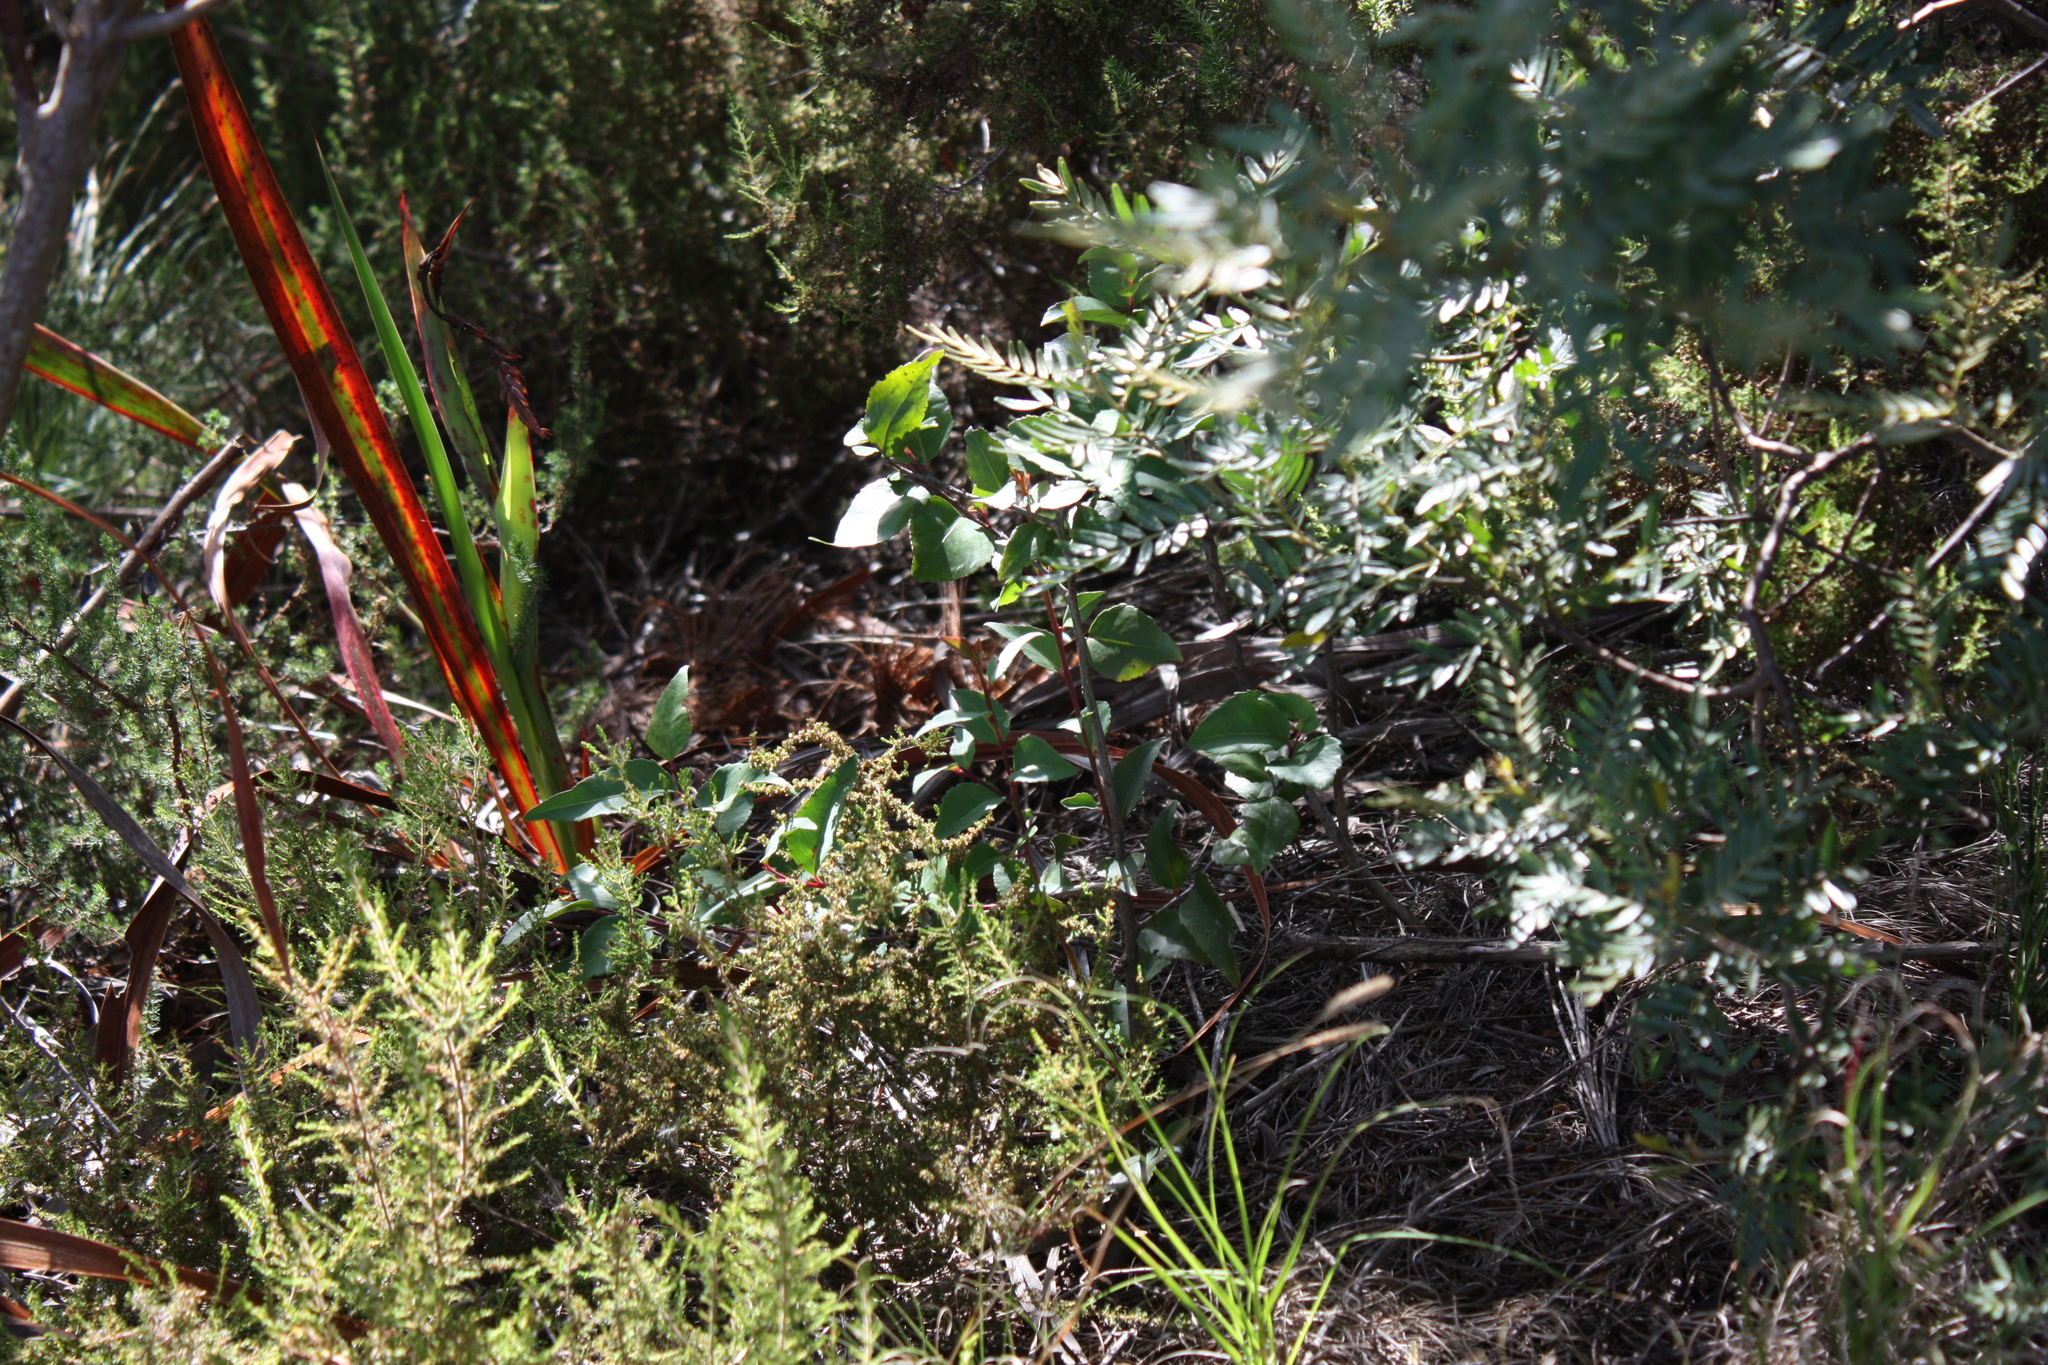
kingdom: Plantae
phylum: Tracheophyta
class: Magnoliopsida
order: Celastrales
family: Celastraceae
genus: Gymnosporia
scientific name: Gymnosporia acuminata
